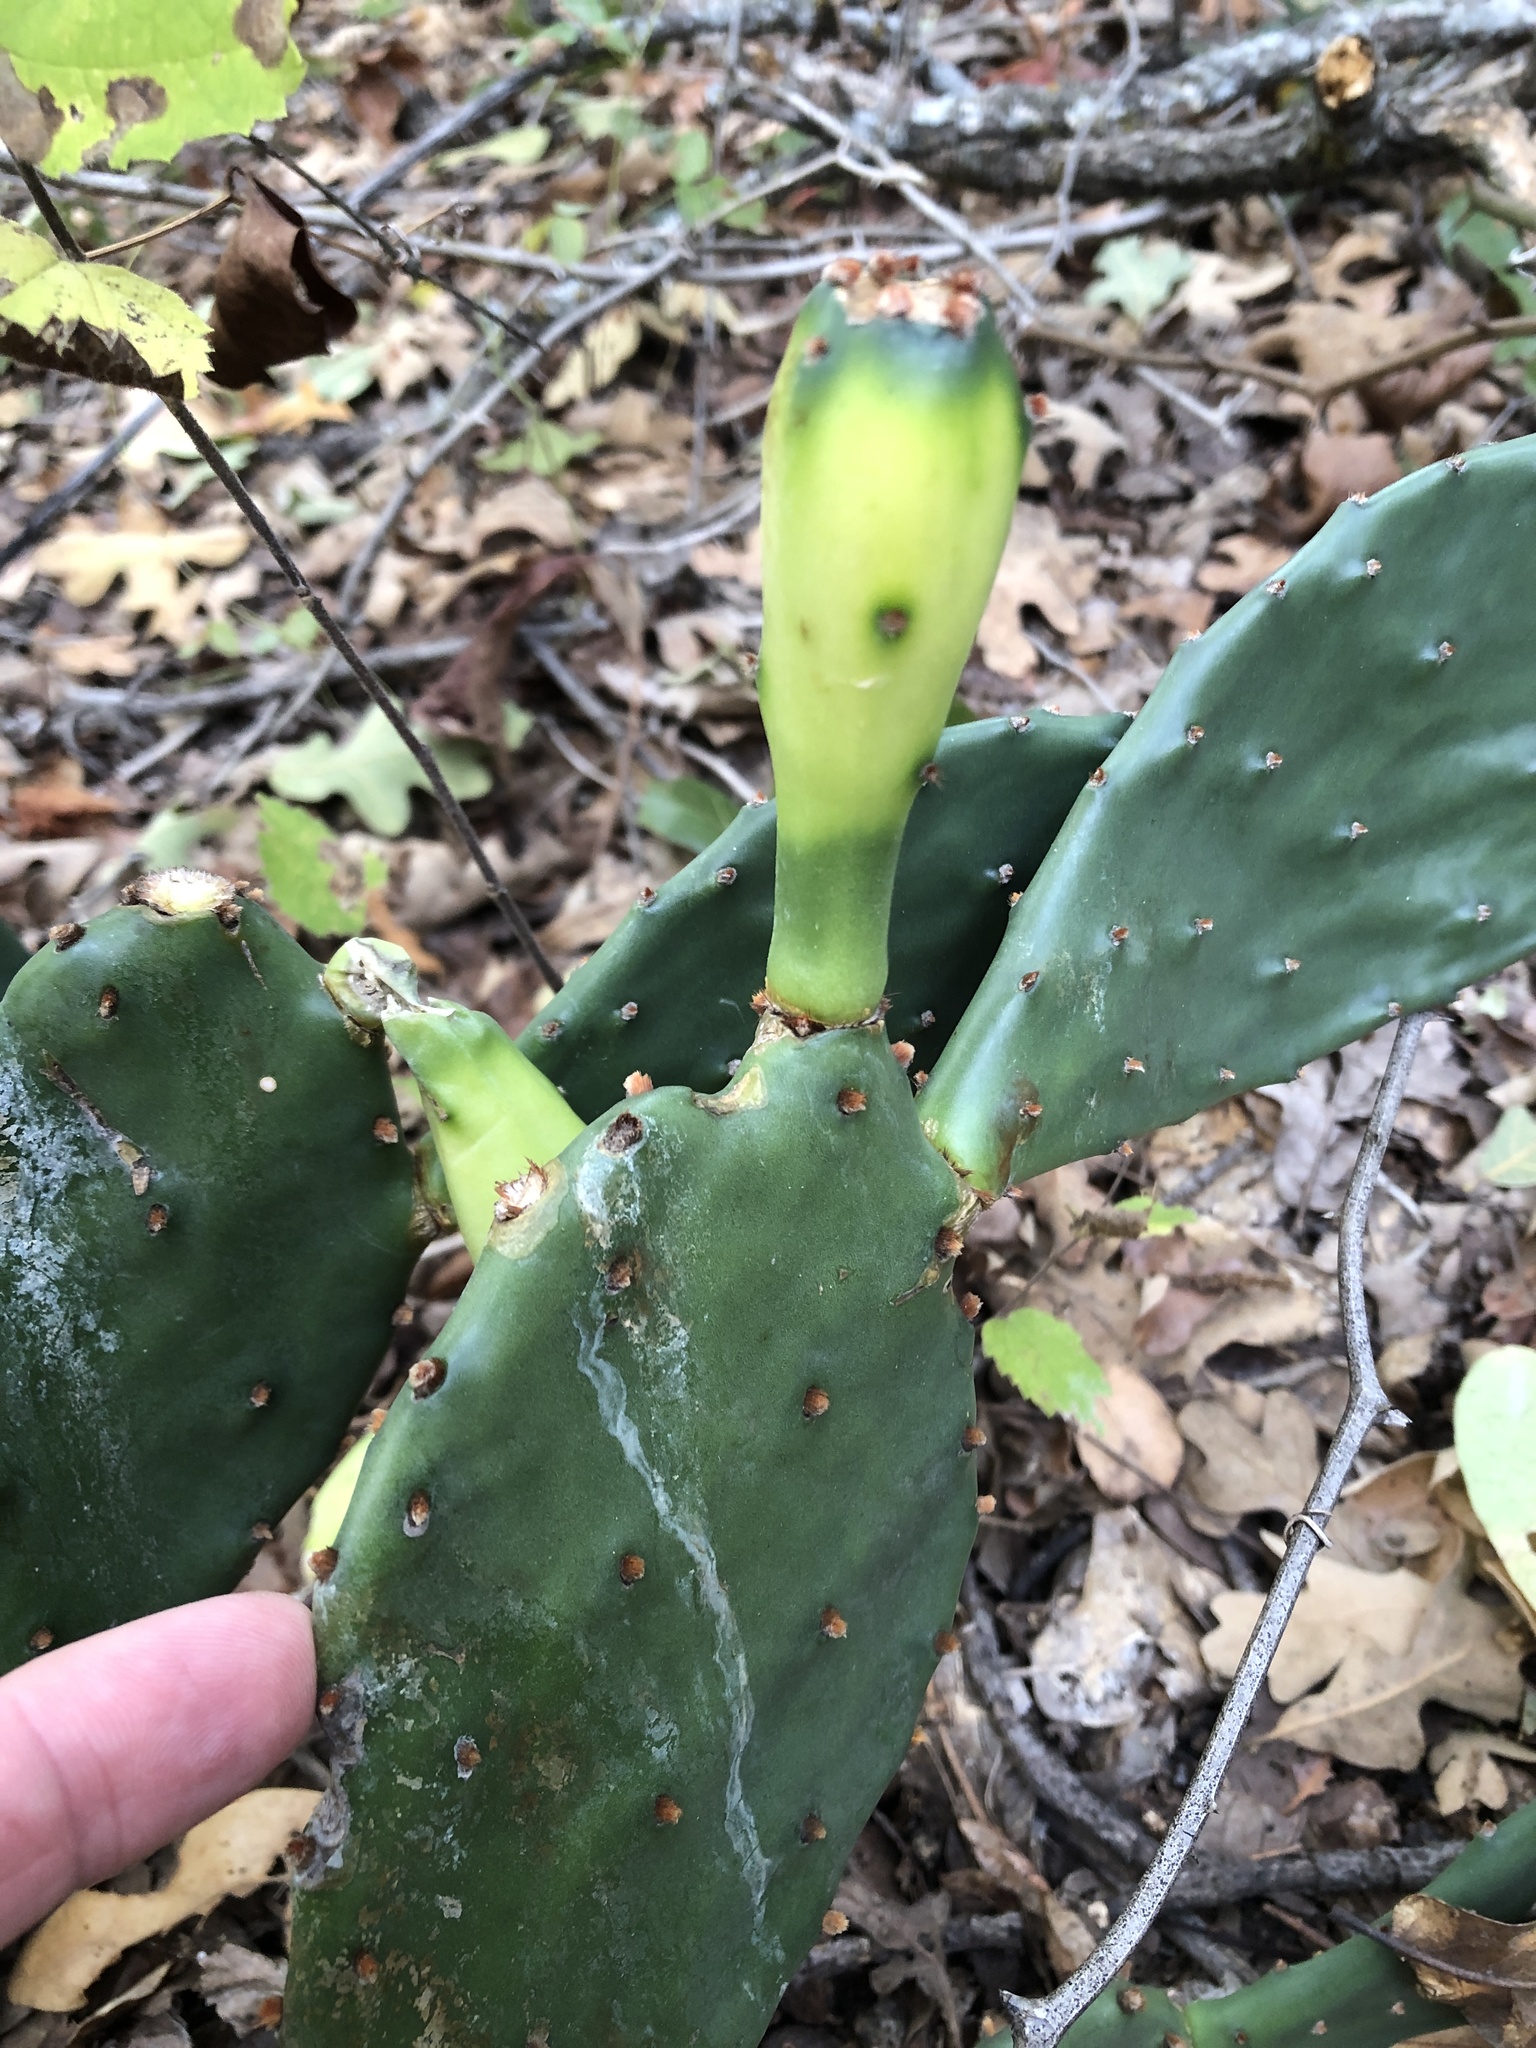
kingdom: Plantae
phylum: Tracheophyta
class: Magnoliopsida
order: Caryophyllales
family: Cactaceae
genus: Opuntia
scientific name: Opuntia macrorhiza
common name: Grassland pricklypear
